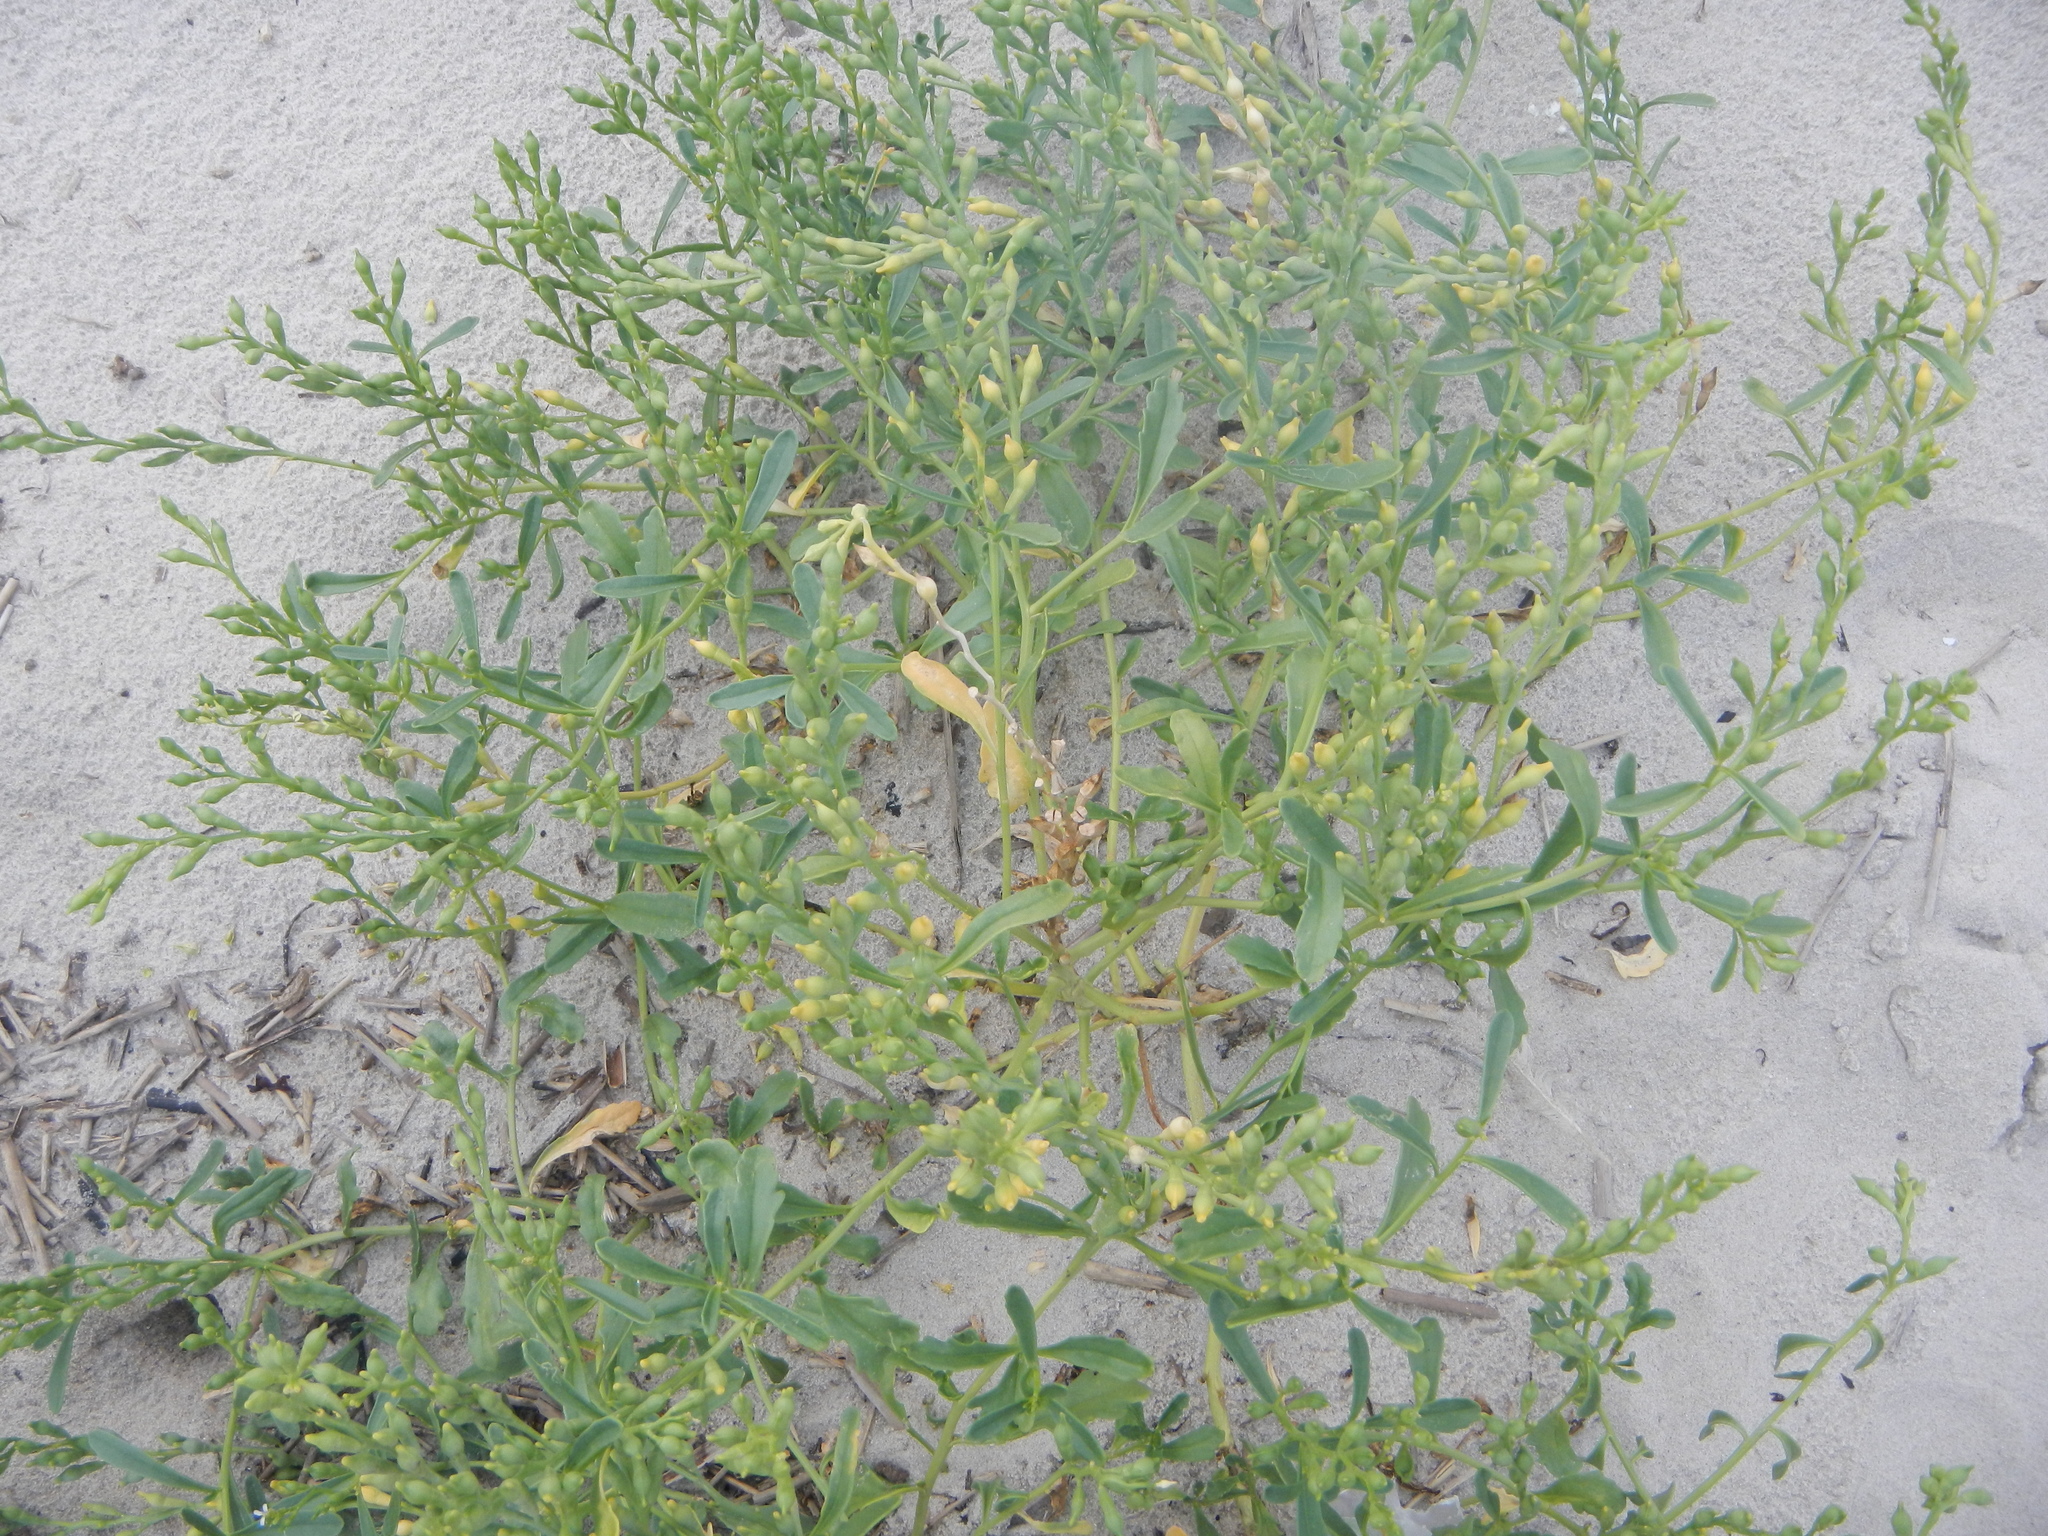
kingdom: Plantae
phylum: Tracheophyta
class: Magnoliopsida
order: Brassicales
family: Brassicaceae
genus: Cakile
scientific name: Cakile edentula
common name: American sea rocket
